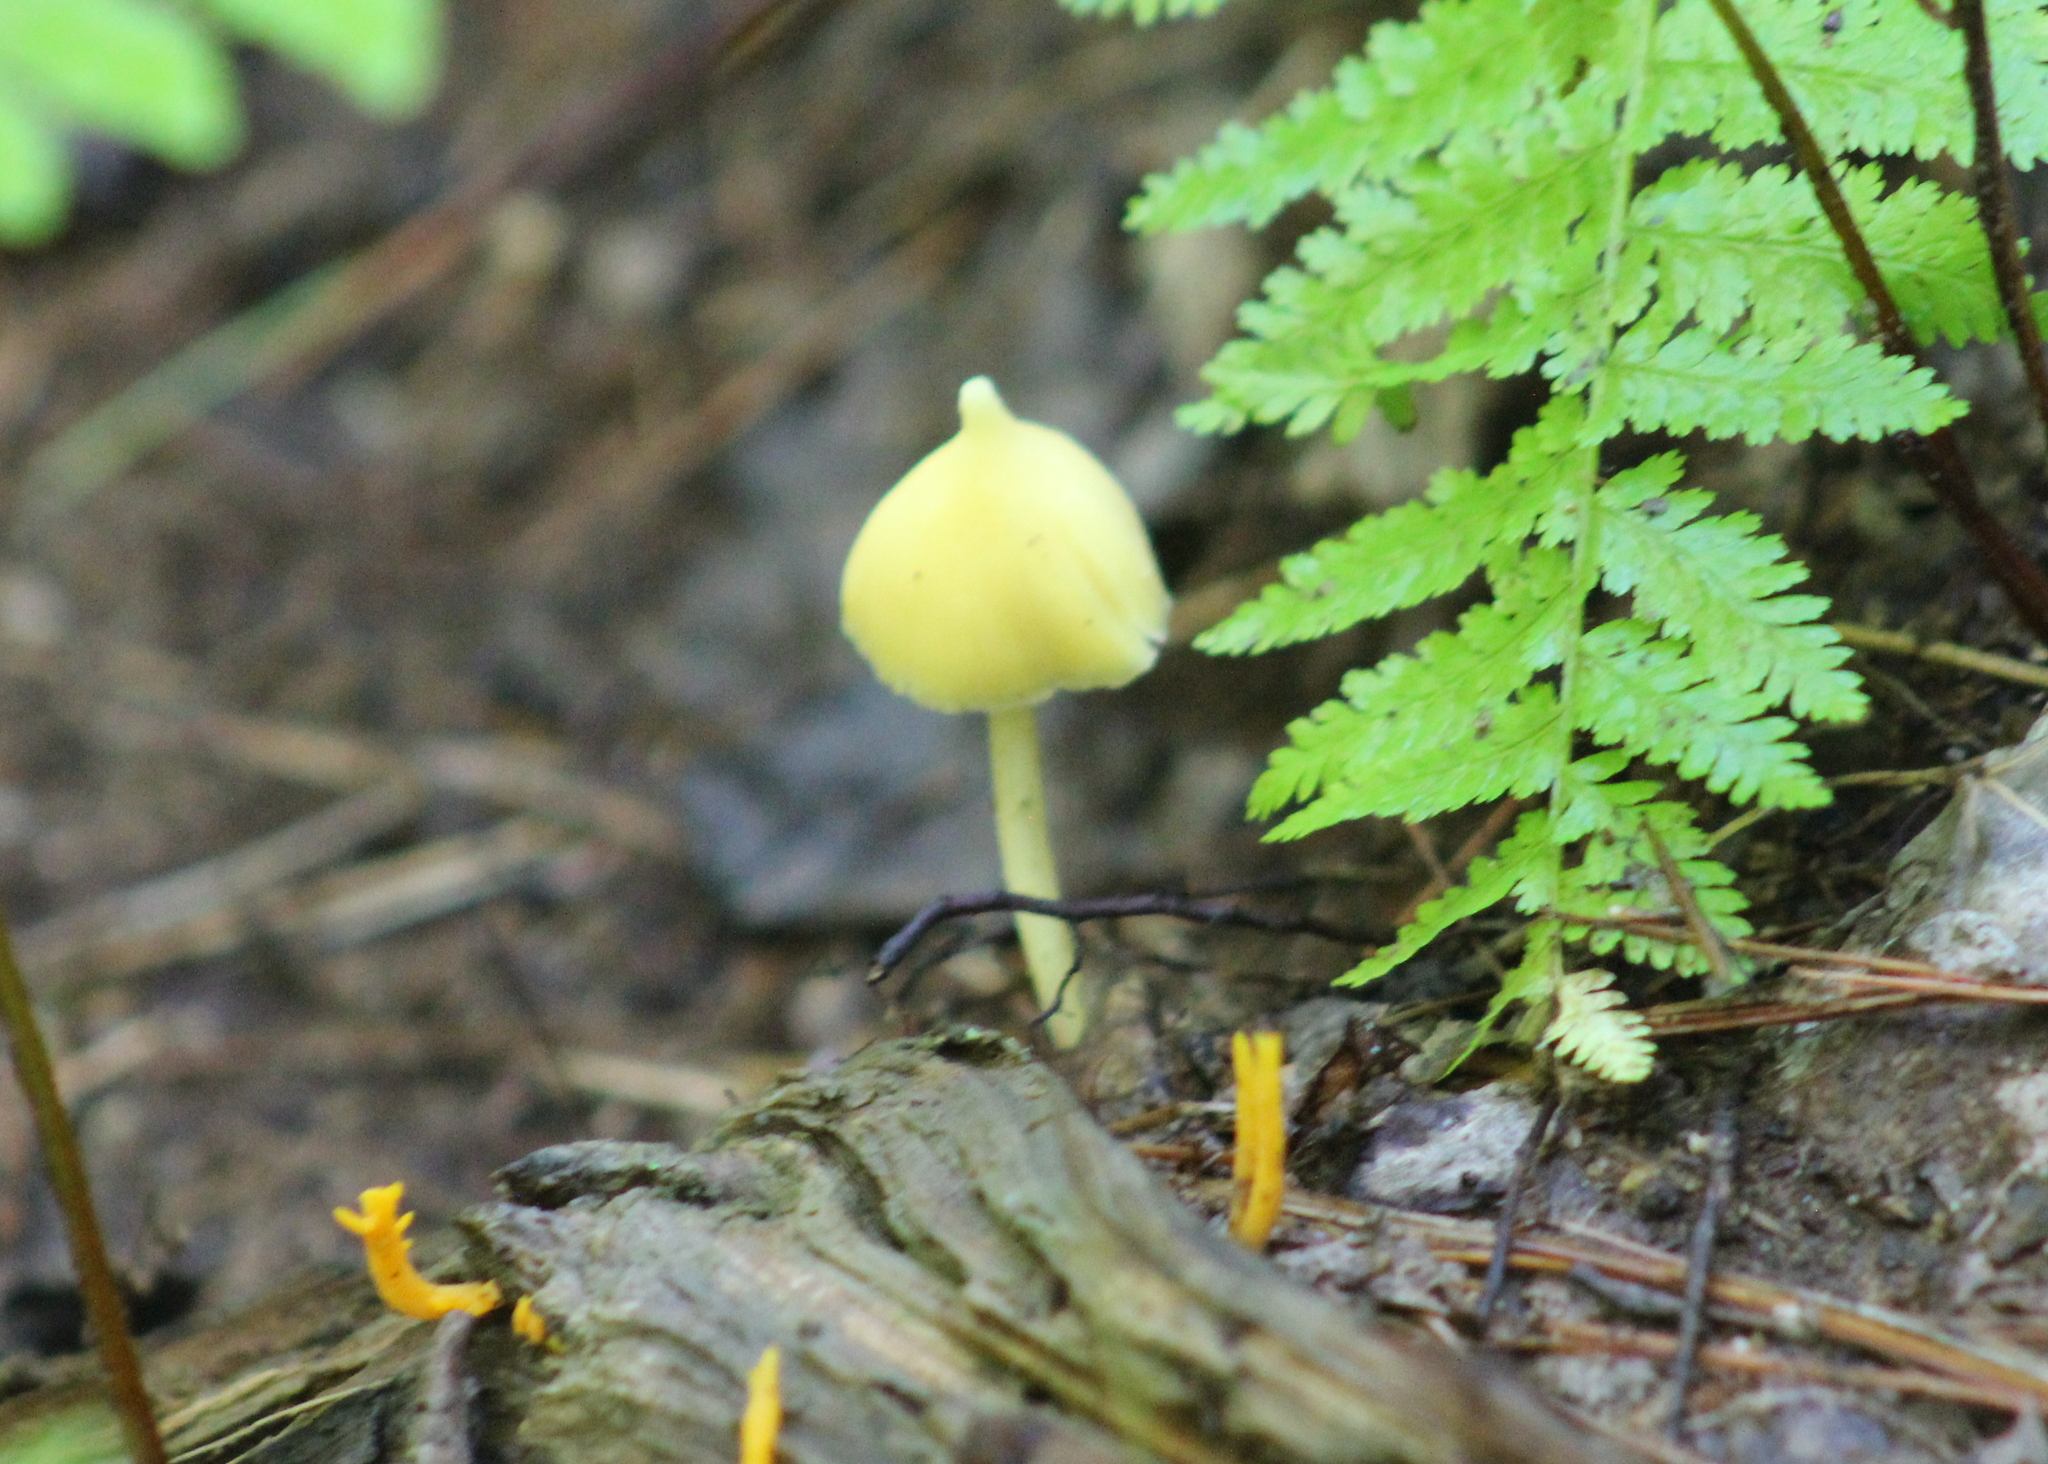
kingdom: Fungi
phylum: Basidiomycota
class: Agaricomycetes
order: Agaricales
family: Entolomataceae
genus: Entoloma
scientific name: Entoloma murrayi
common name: Yellow unicorn entoloma
